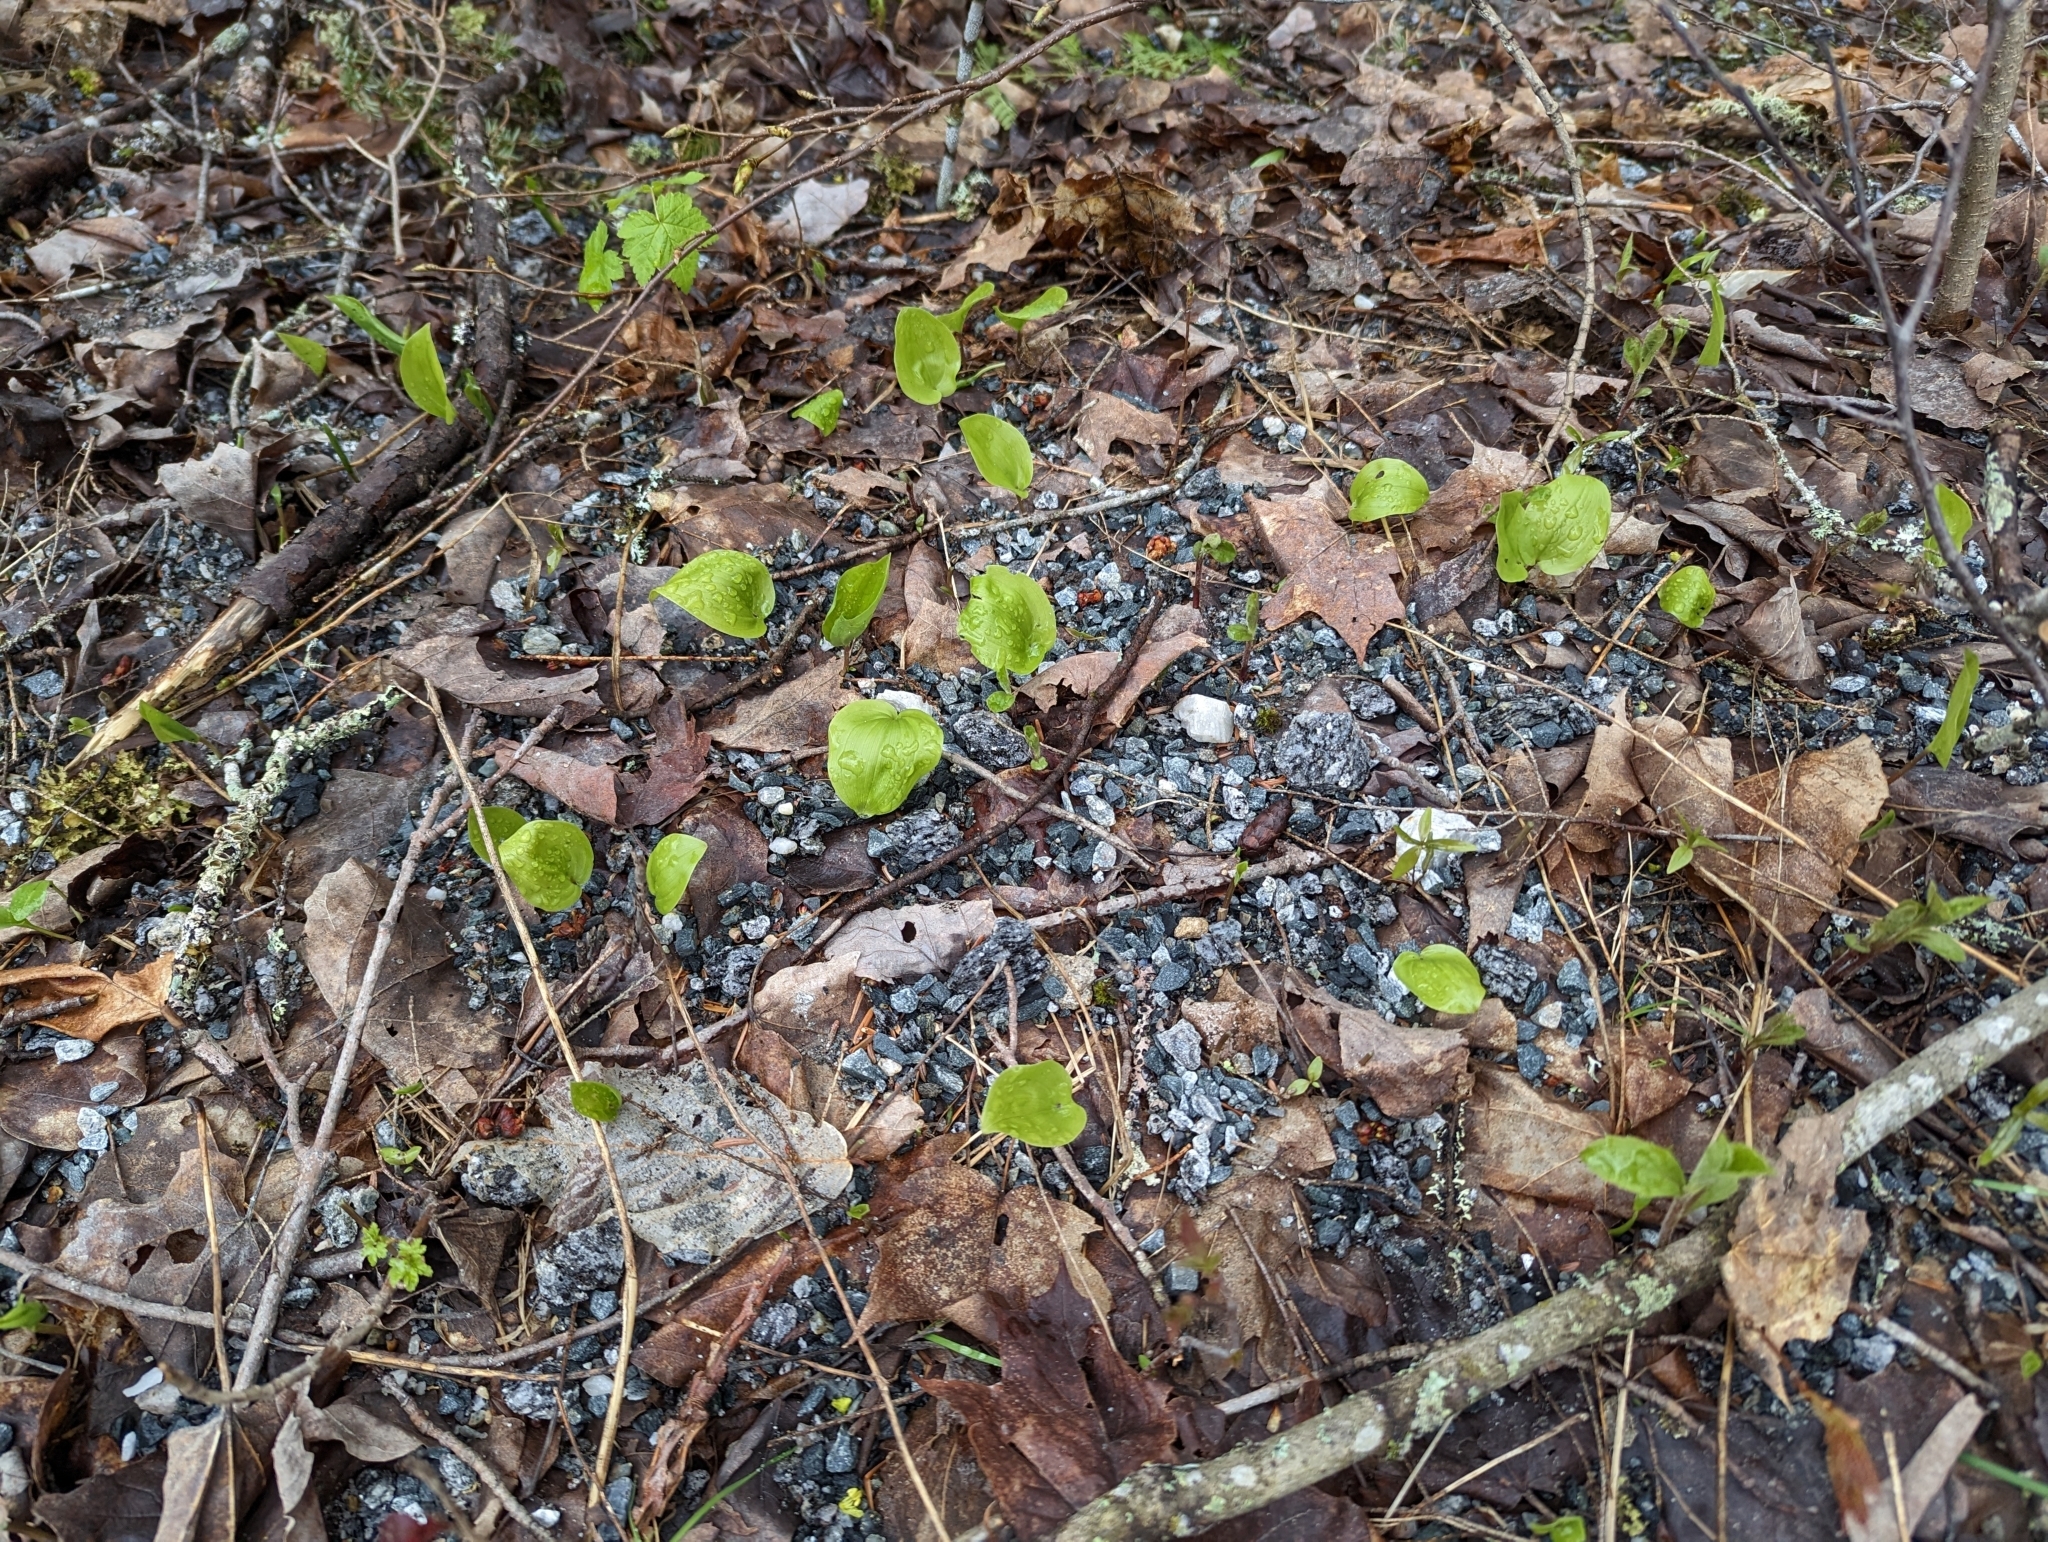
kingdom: Plantae
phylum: Tracheophyta
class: Liliopsida
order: Asparagales
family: Asparagaceae
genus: Maianthemum
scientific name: Maianthemum canadense
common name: False lily-of-the-valley
